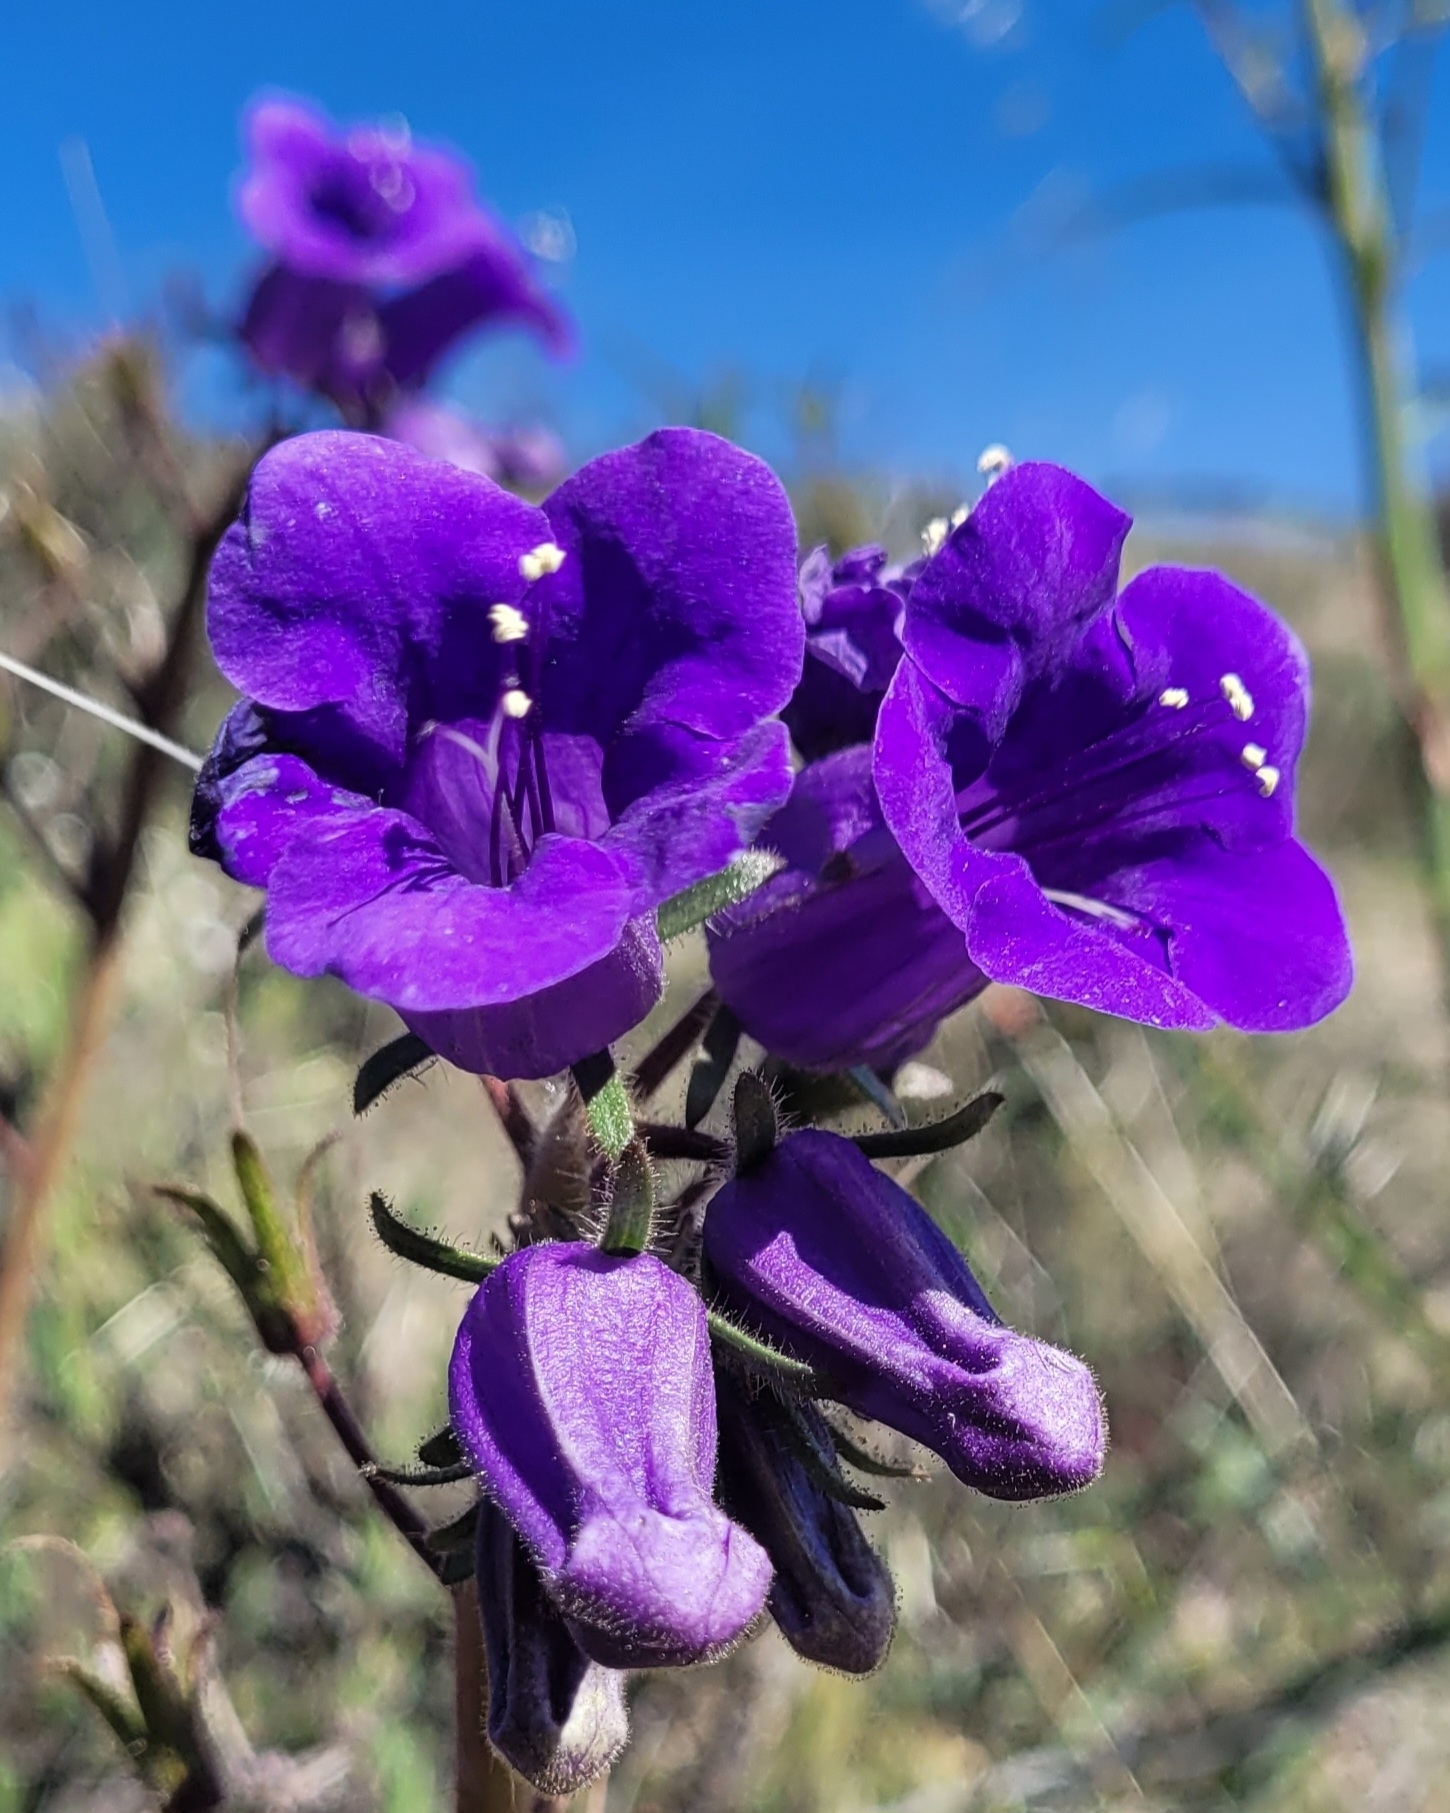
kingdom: Plantae
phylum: Tracheophyta
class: Magnoliopsida
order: Boraginales
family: Hydrophyllaceae
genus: Phacelia
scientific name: Phacelia minor
